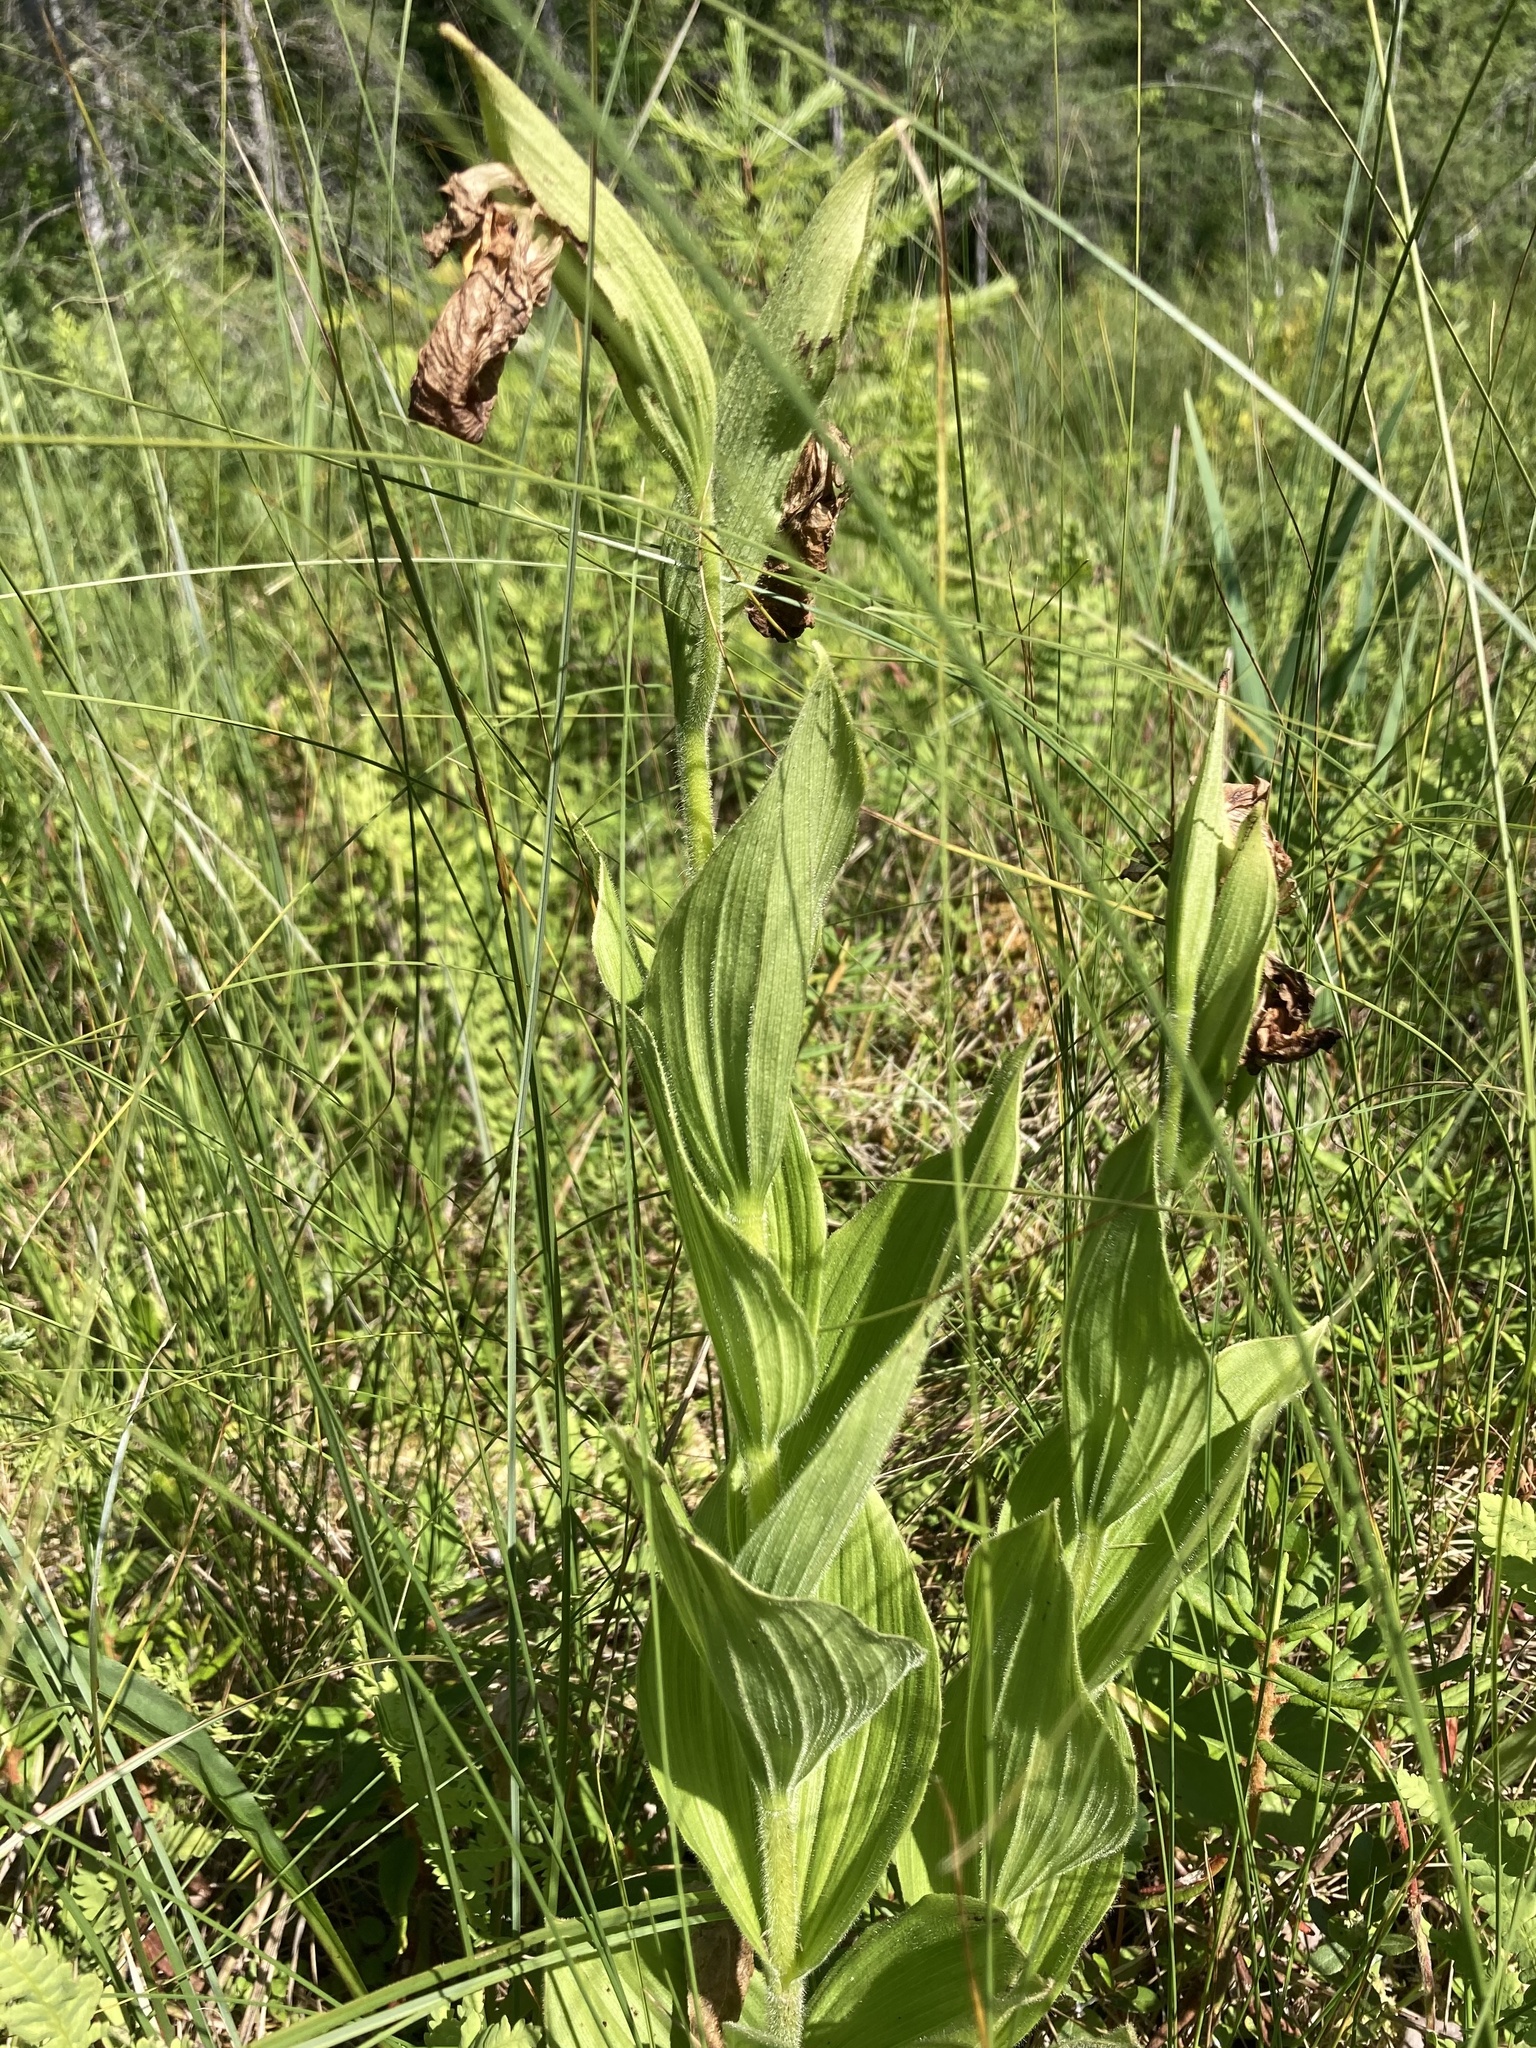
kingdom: Plantae
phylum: Tracheophyta
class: Liliopsida
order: Asparagales
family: Orchidaceae
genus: Cypripedium
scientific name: Cypripedium reginae
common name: Queen lady's-slipper
